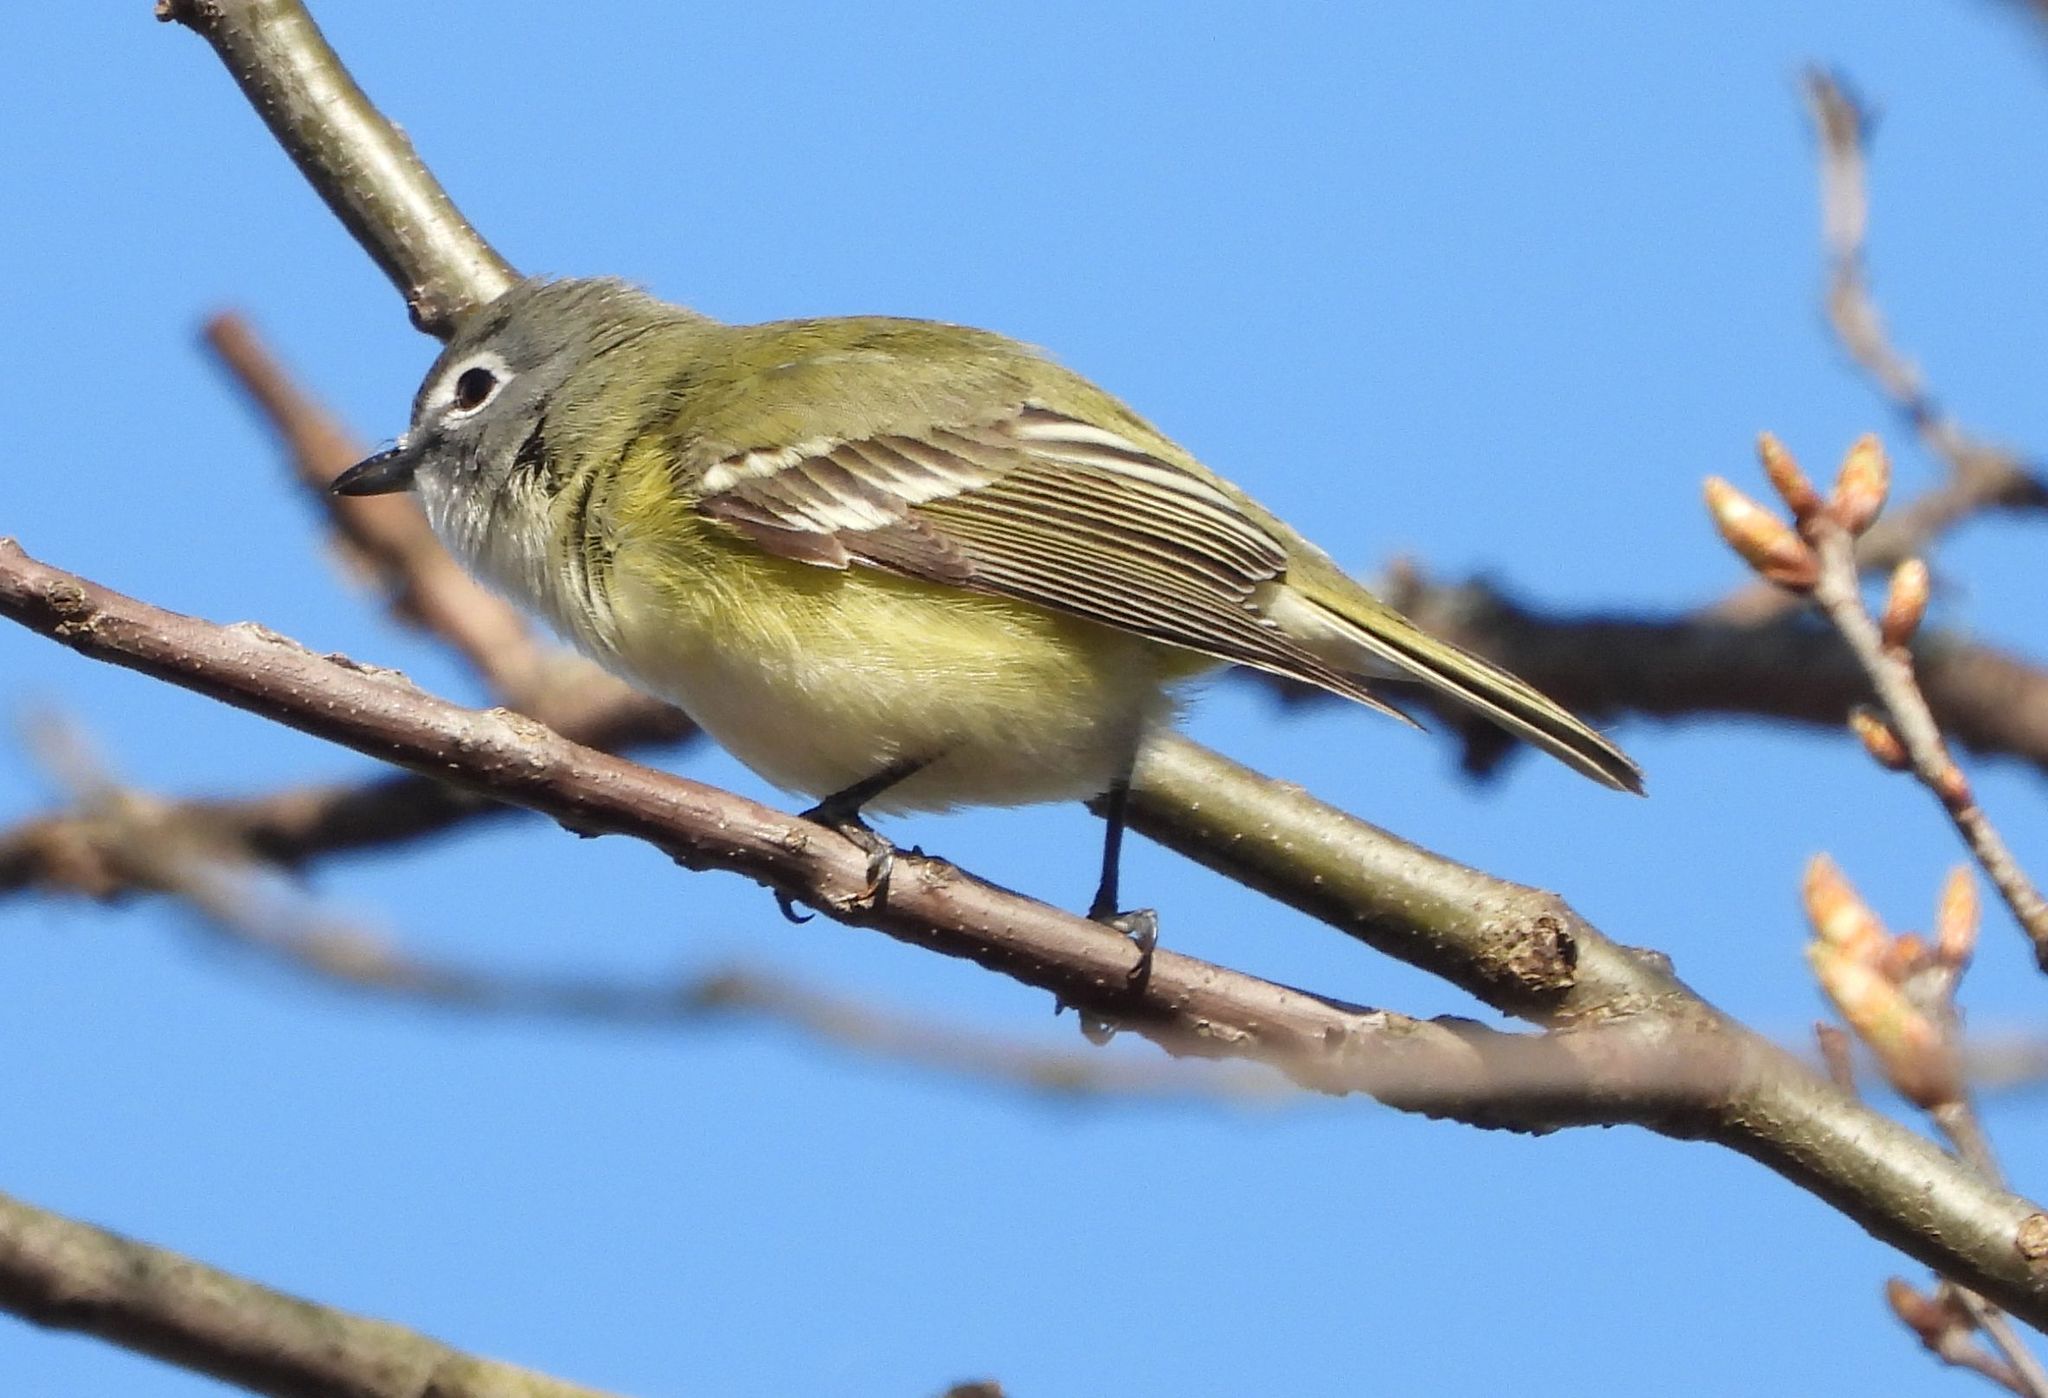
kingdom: Animalia
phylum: Chordata
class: Aves
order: Passeriformes
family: Vireonidae
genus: Vireo
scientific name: Vireo solitarius
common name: Blue-headed vireo
